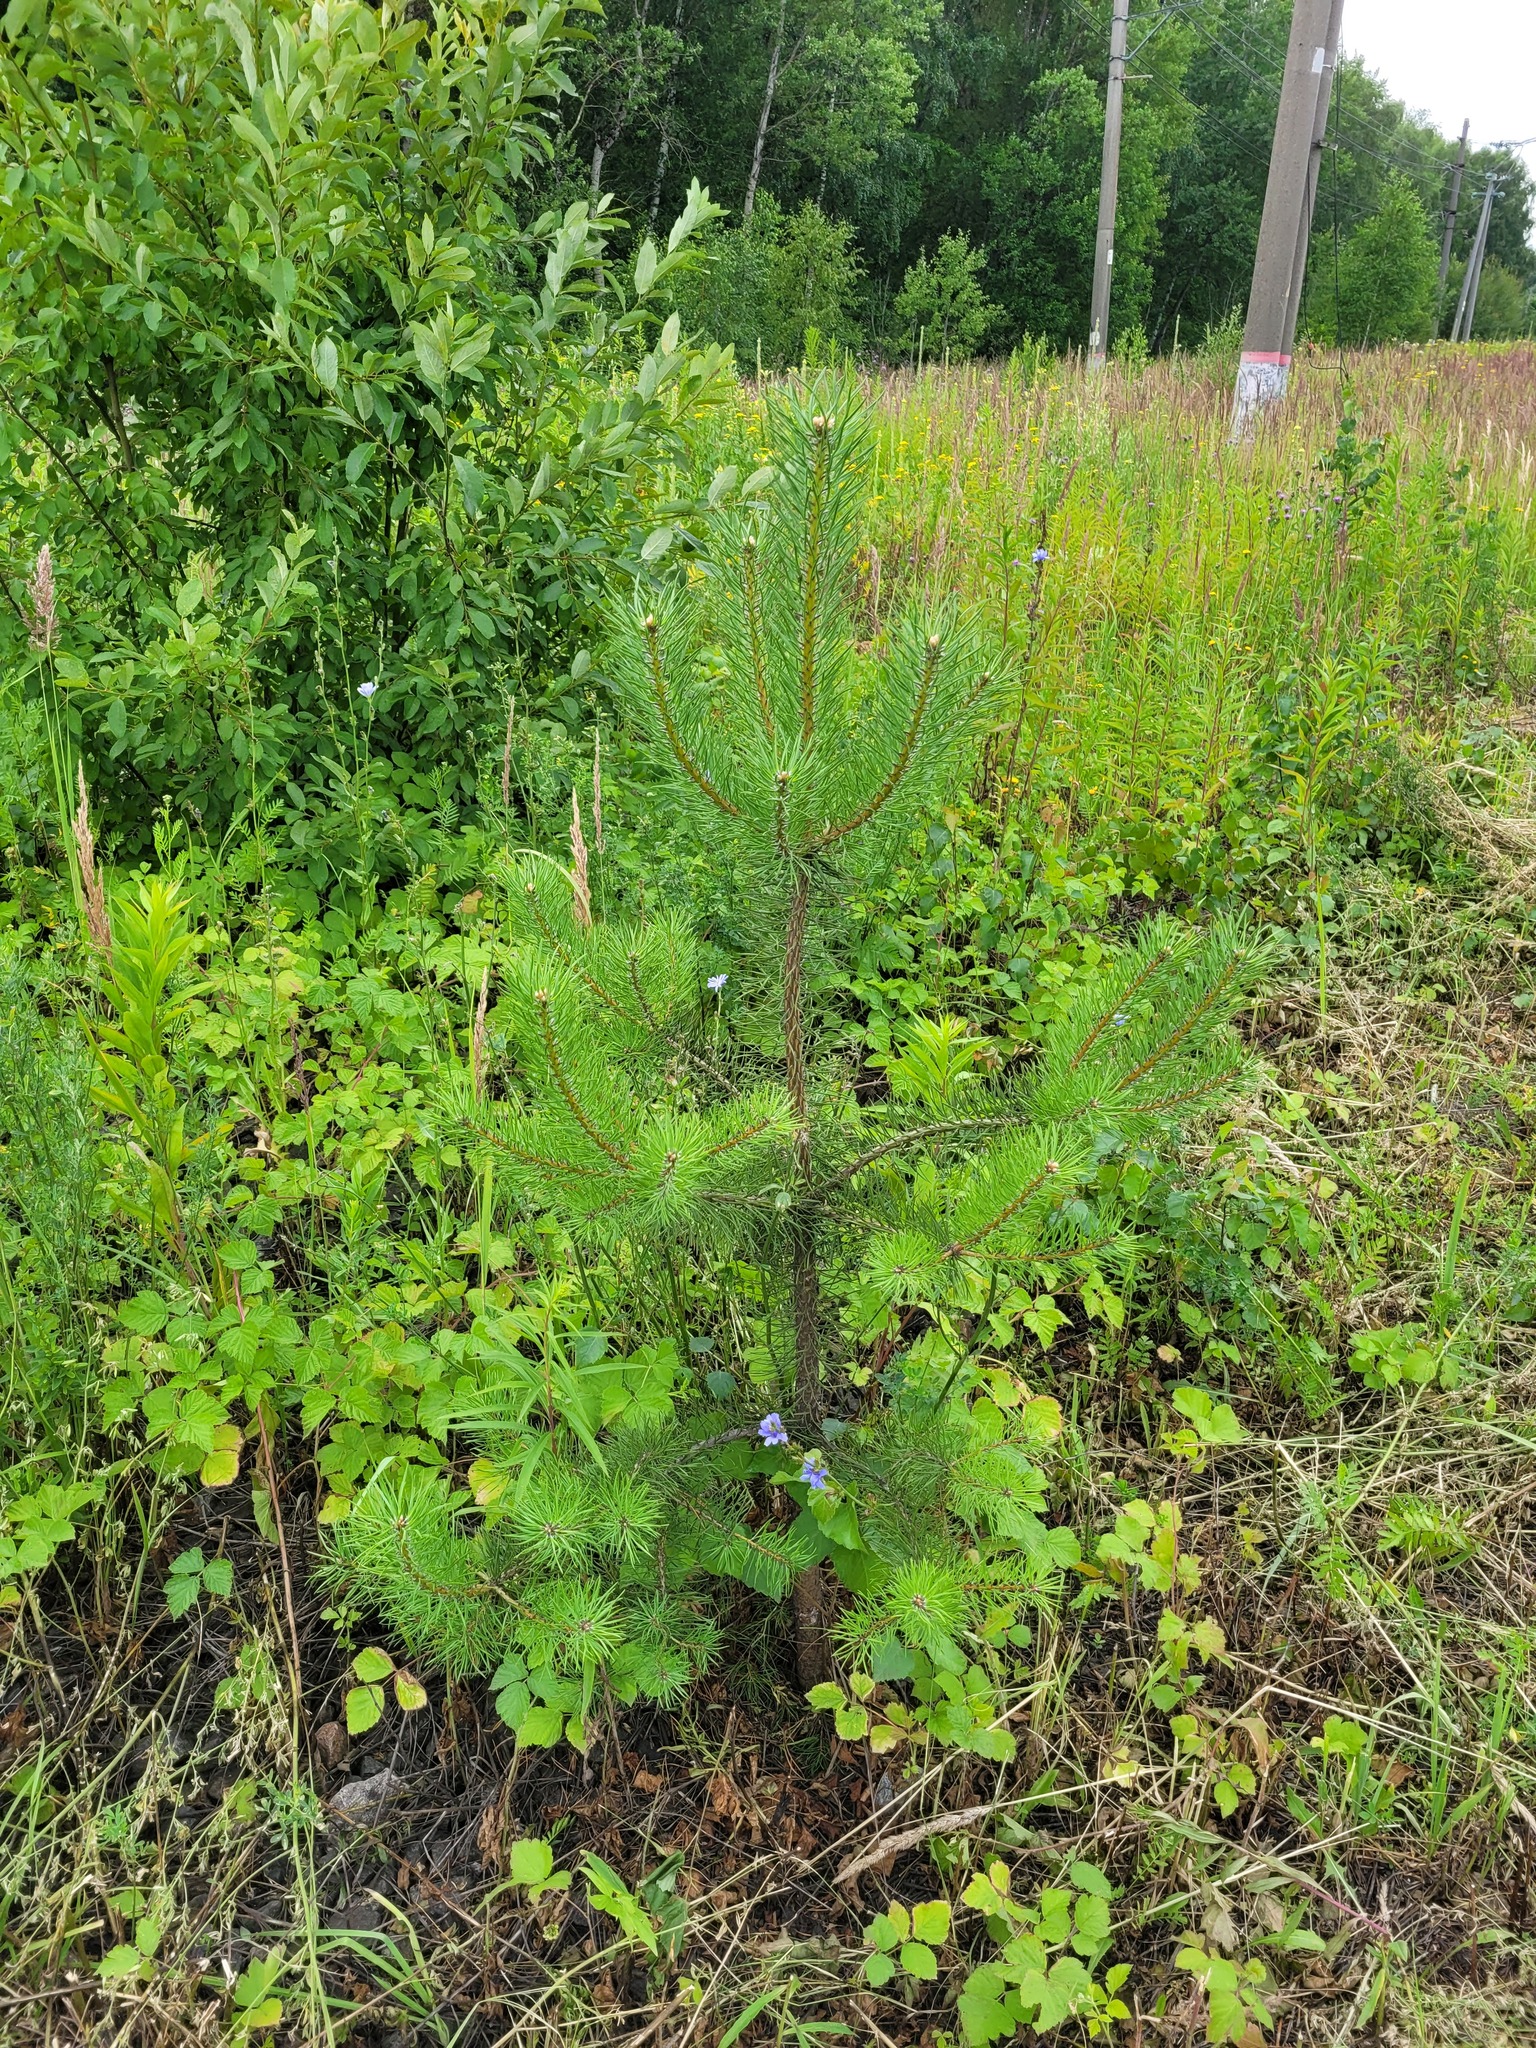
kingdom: Plantae
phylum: Tracheophyta
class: Pinopsida
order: Pinales
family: Pinaceae
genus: Pinus
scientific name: Pinus sylvestris
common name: Scots pine
